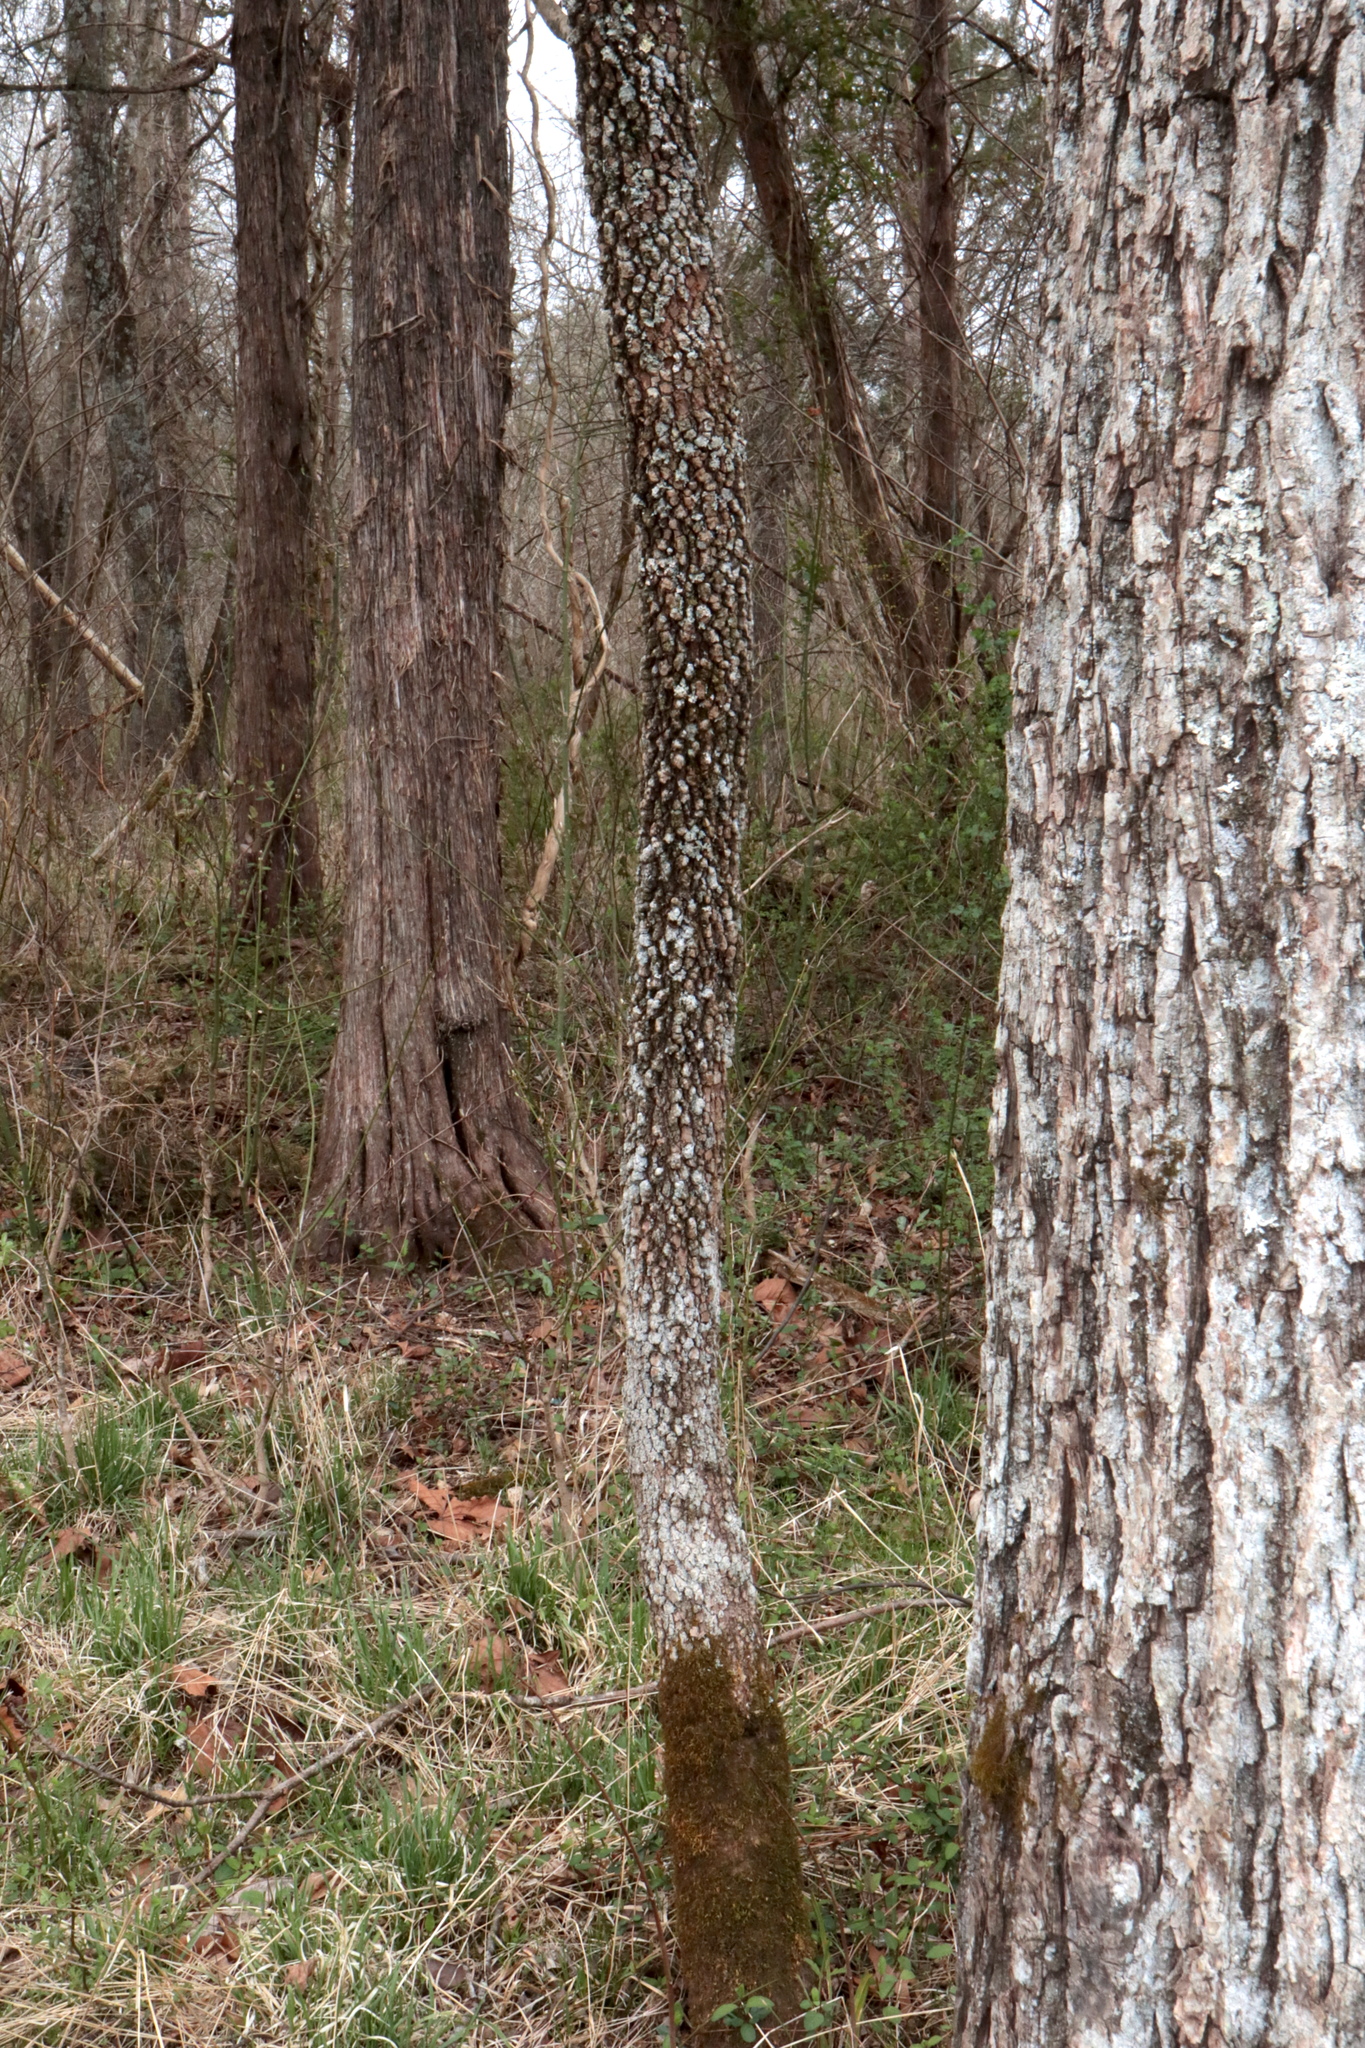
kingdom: Plantae
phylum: Tracheophyta
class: Magnoliopsida
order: Dipsacales
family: Viburnaceae
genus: Viburnum
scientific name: Viburnum prunifolium
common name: Black haw
